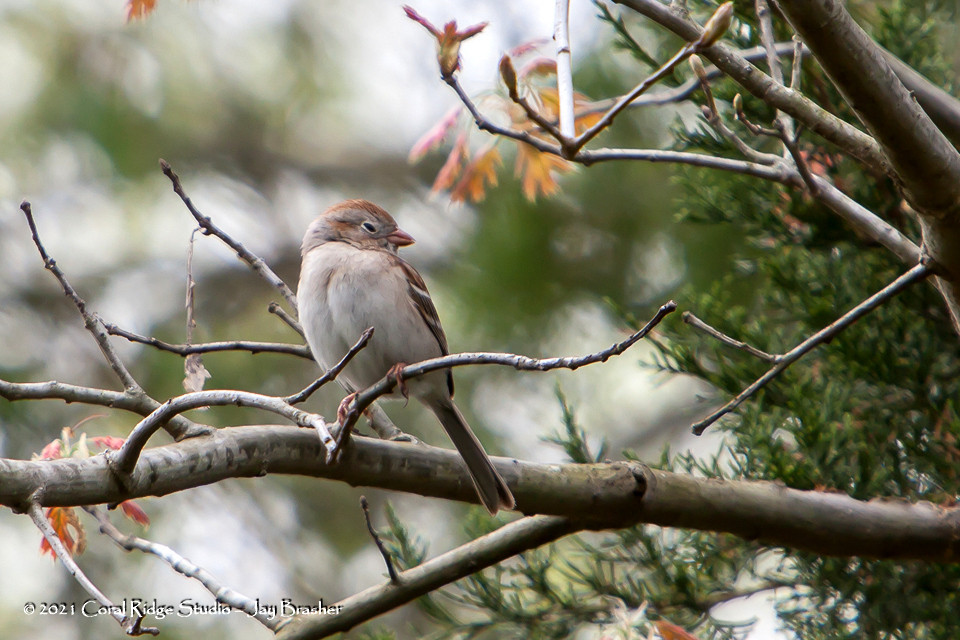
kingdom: Animalia
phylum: Chordata
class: Aves
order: Passeriformes
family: Passerellidae
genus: Spizella
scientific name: Spizella pusilla
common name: Field sparrow
